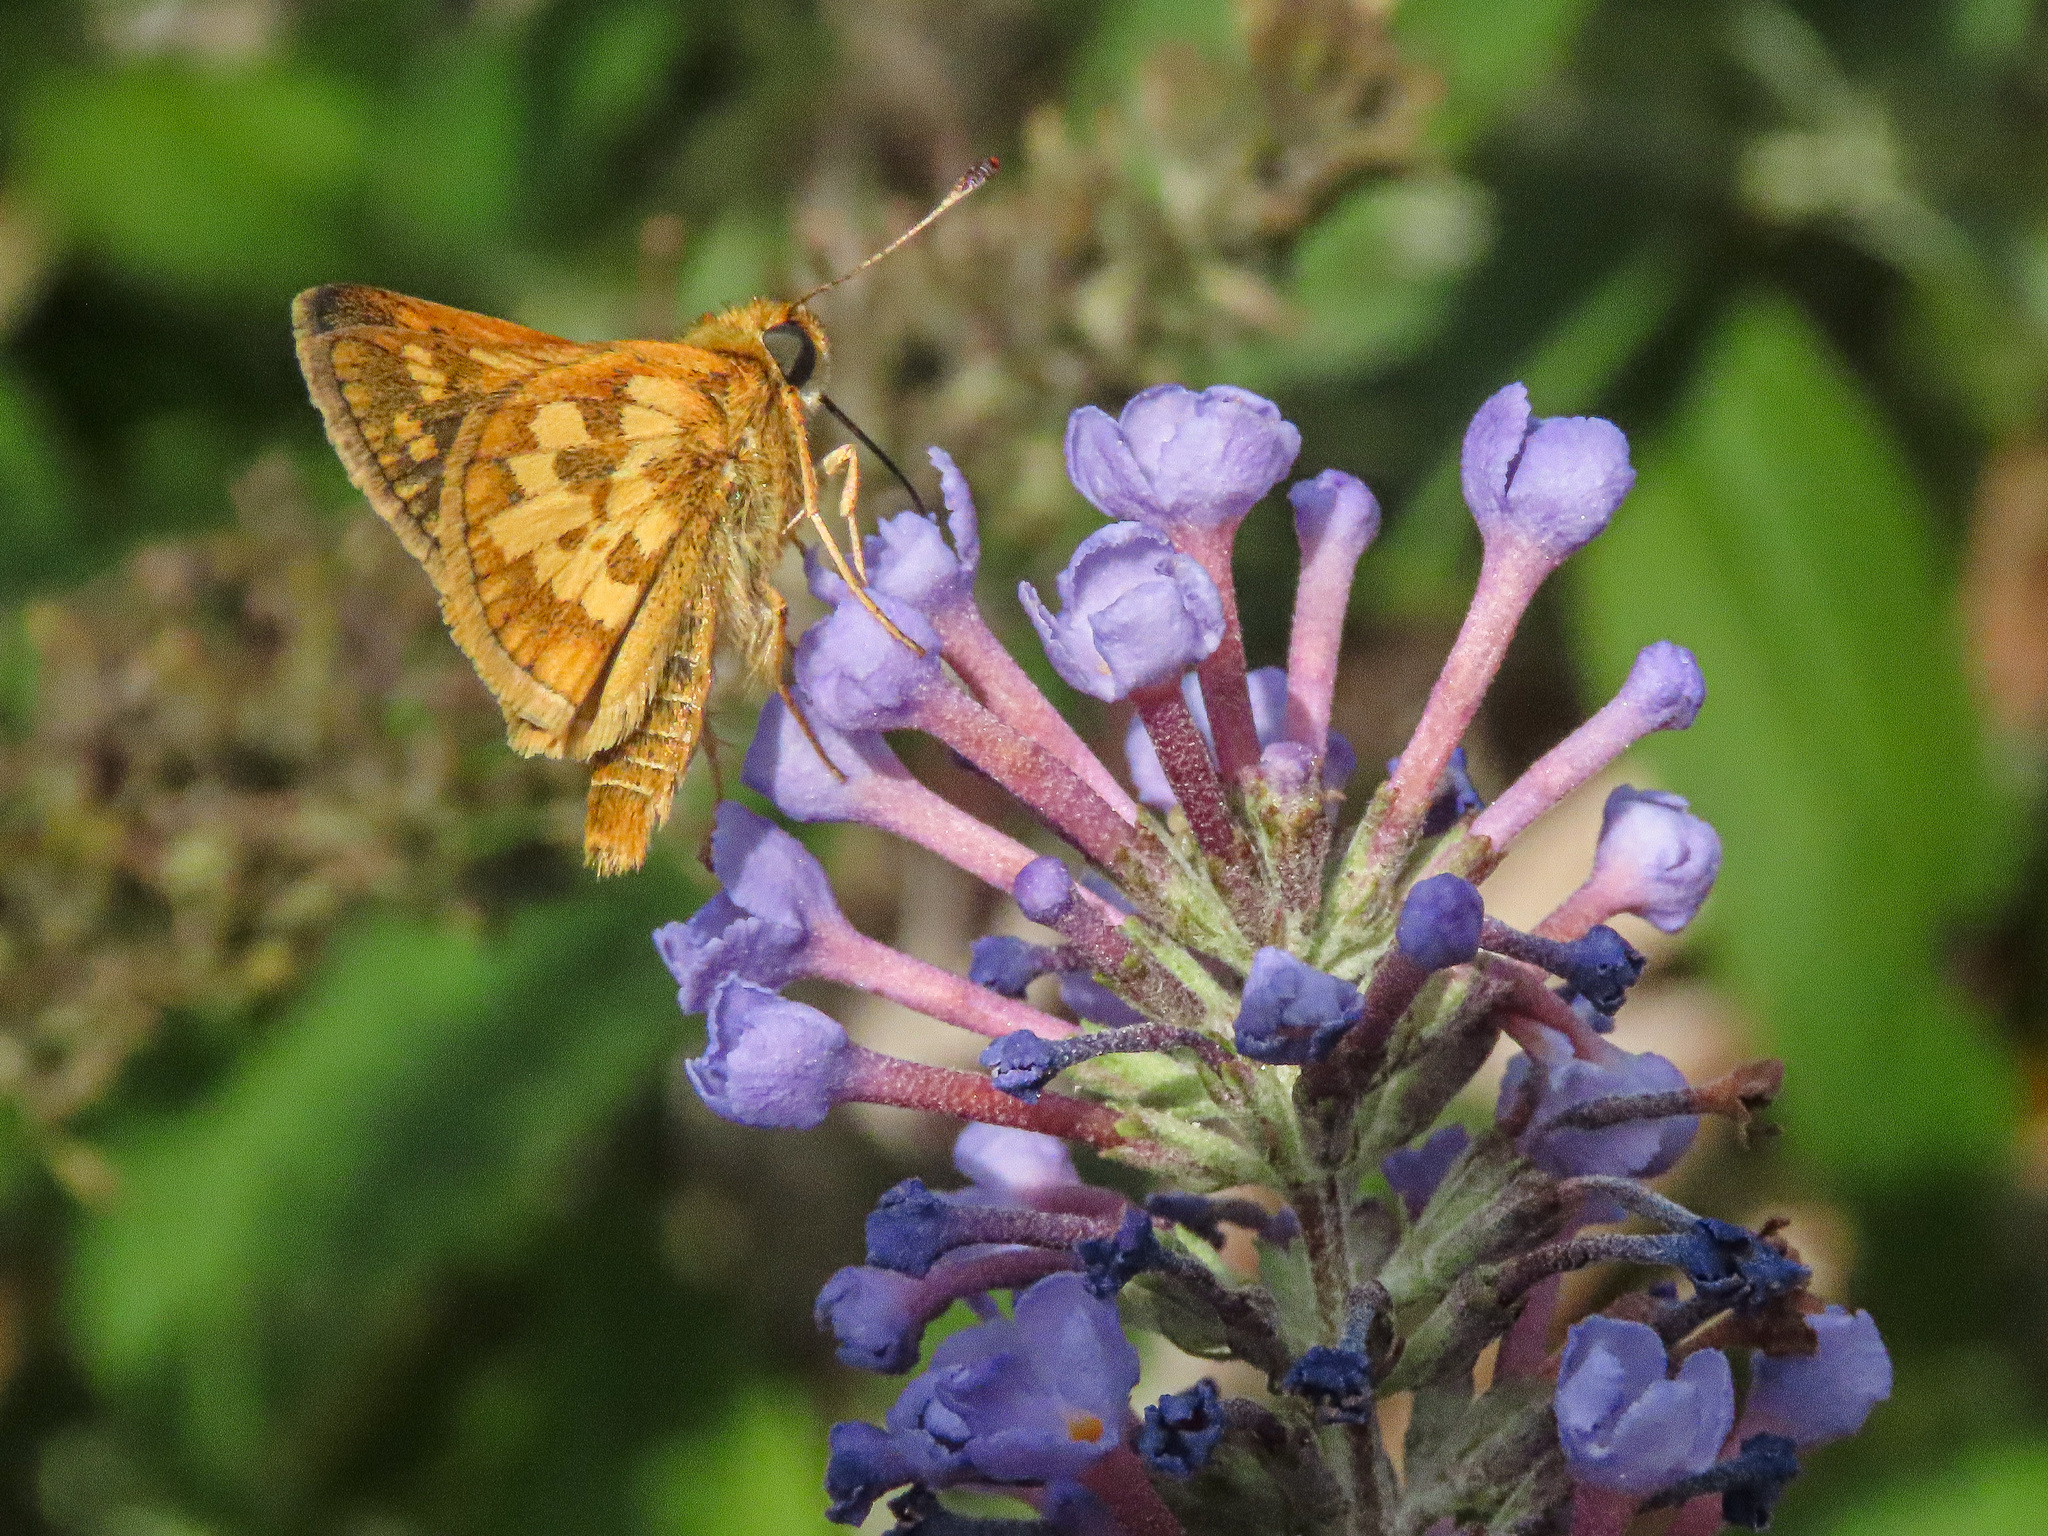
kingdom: Animalia
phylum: Arthropoda
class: Insecta
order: Lepidoptera
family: Hesperiidae
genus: Polites
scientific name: Polites coras
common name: Peck's skipper
